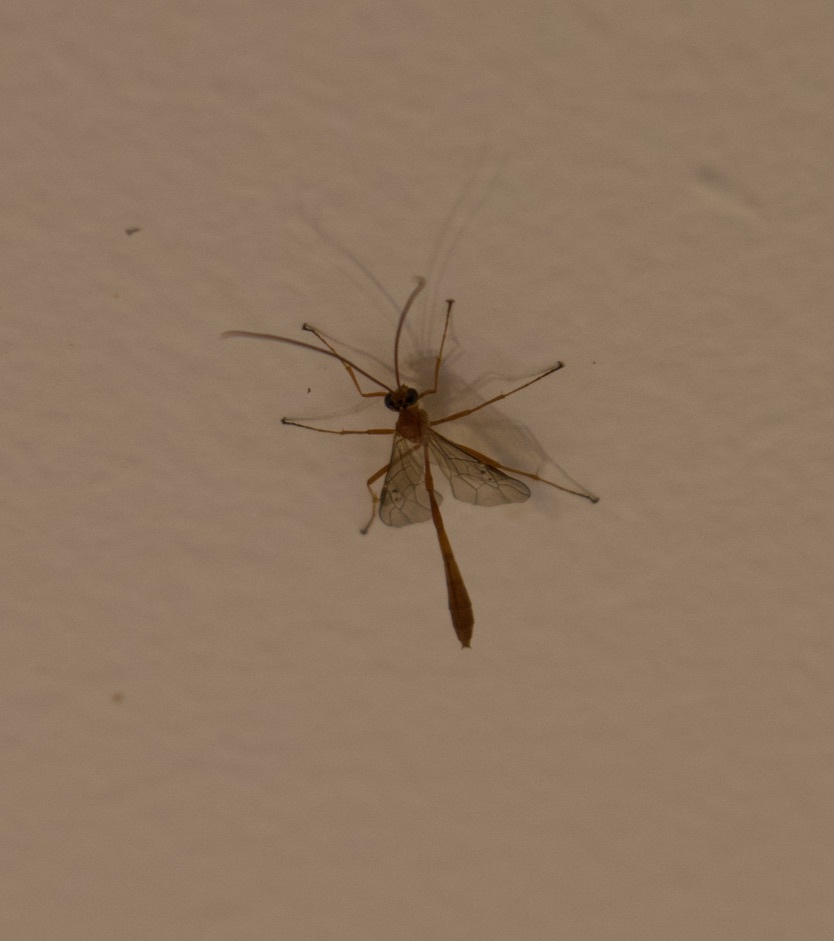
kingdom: Animalia
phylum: Arthropoda
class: Insecta
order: Hymenoptera
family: Ichneumonidae
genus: Enicospilus
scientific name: Enicospilus purgatus
